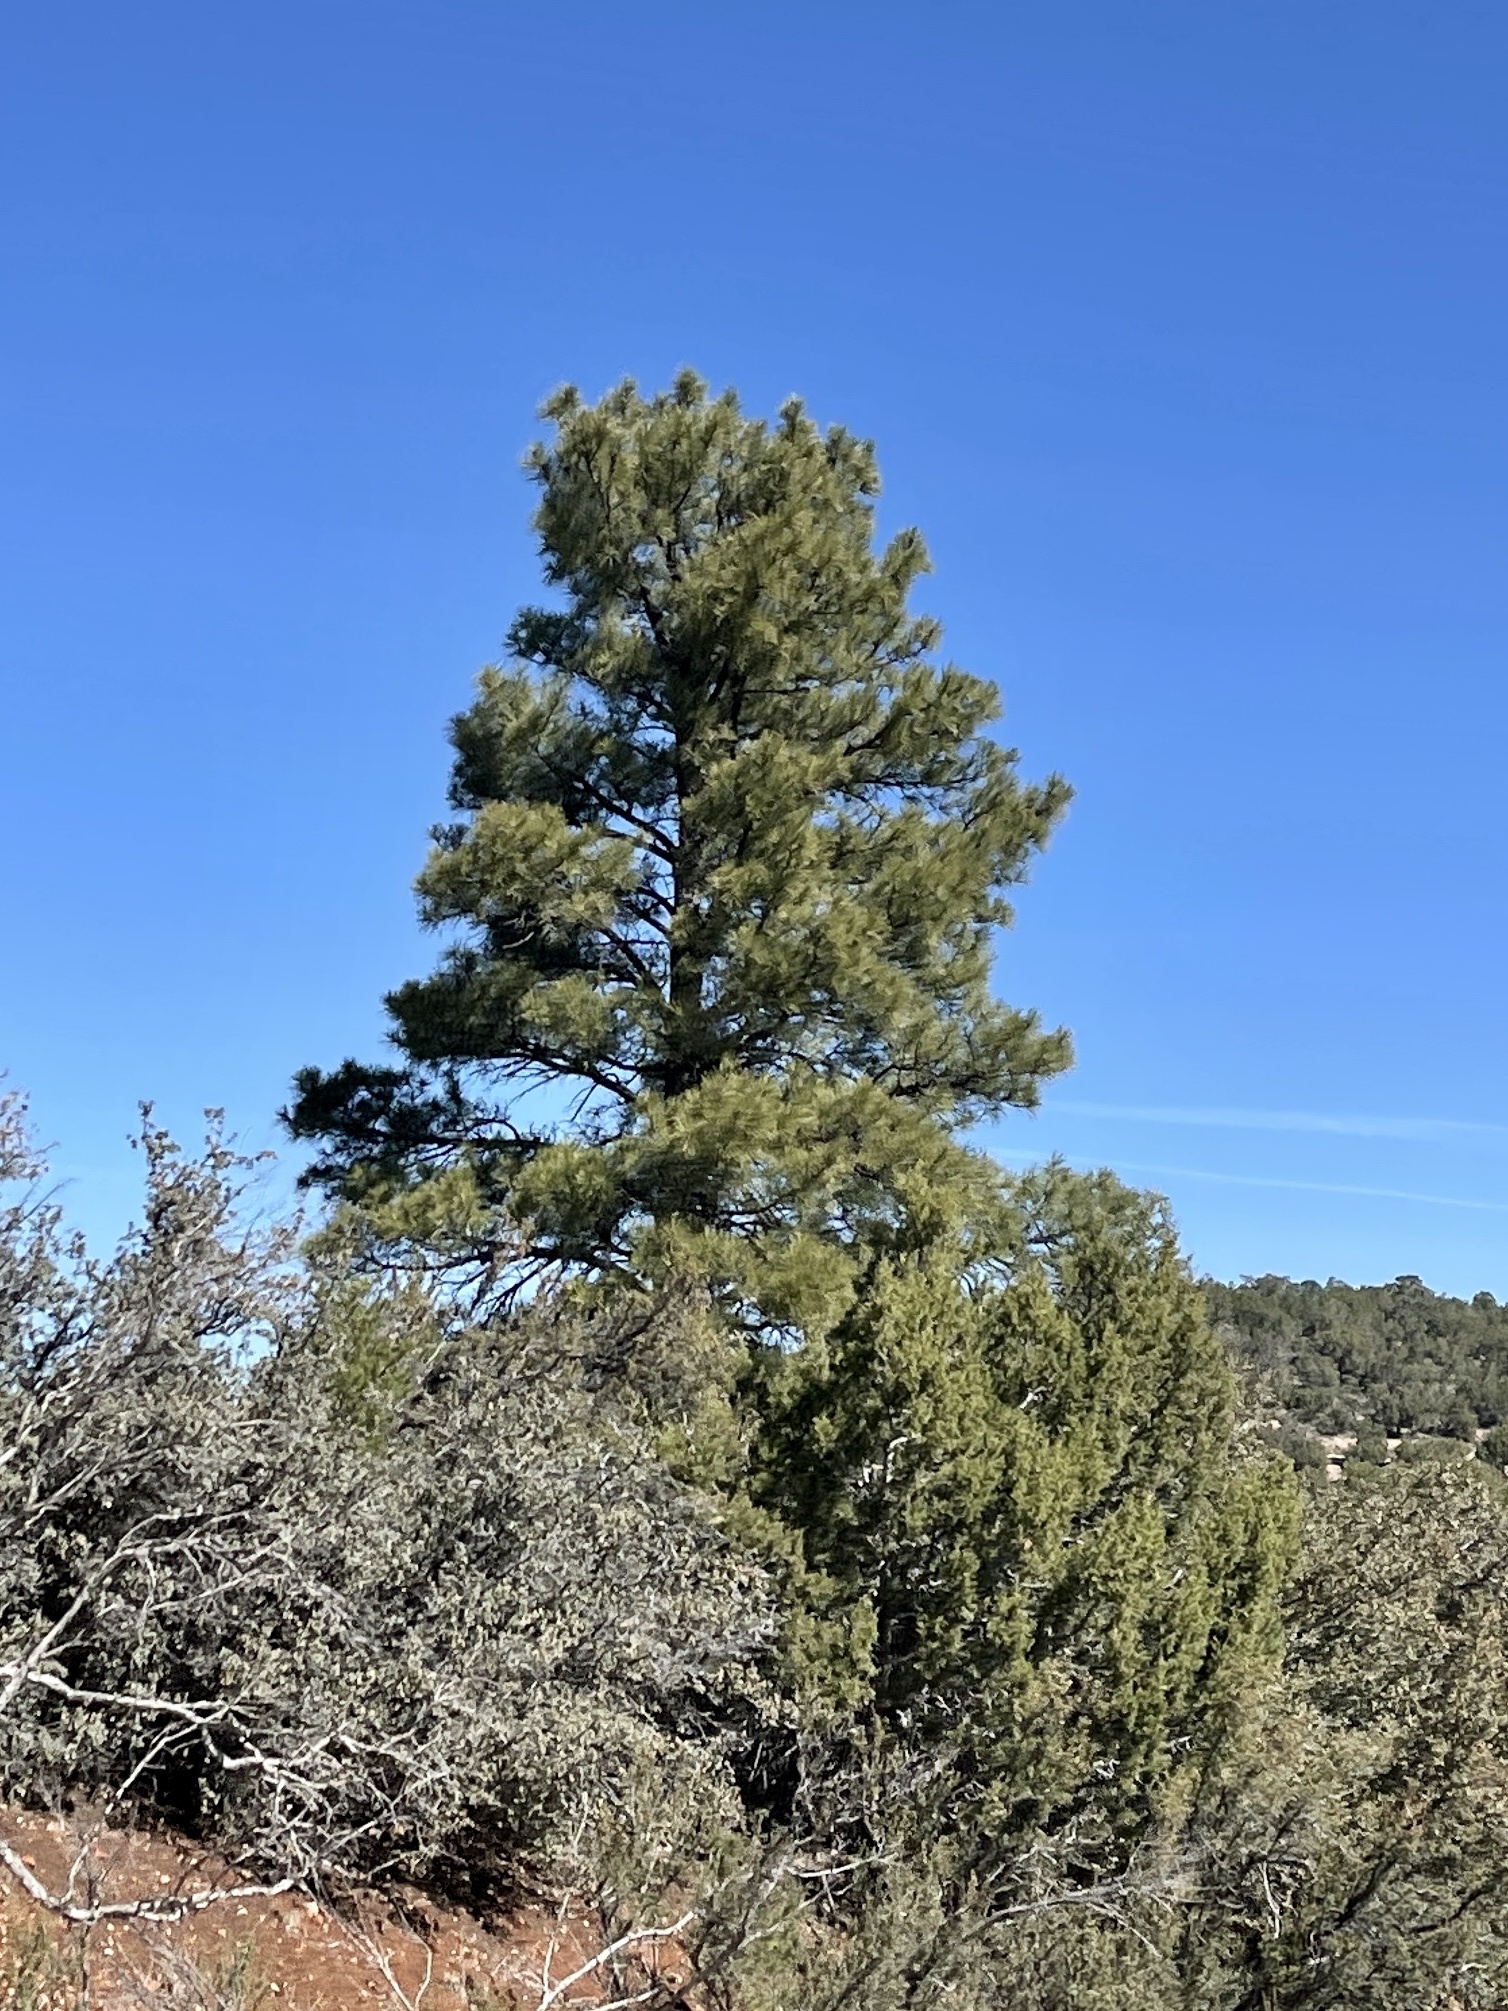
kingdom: Plantae
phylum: Tracheophyta
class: Pinopsida
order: Pinales
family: Pinaceae
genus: Pinus
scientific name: Pinus ponderosa
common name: Western yellow-pine
